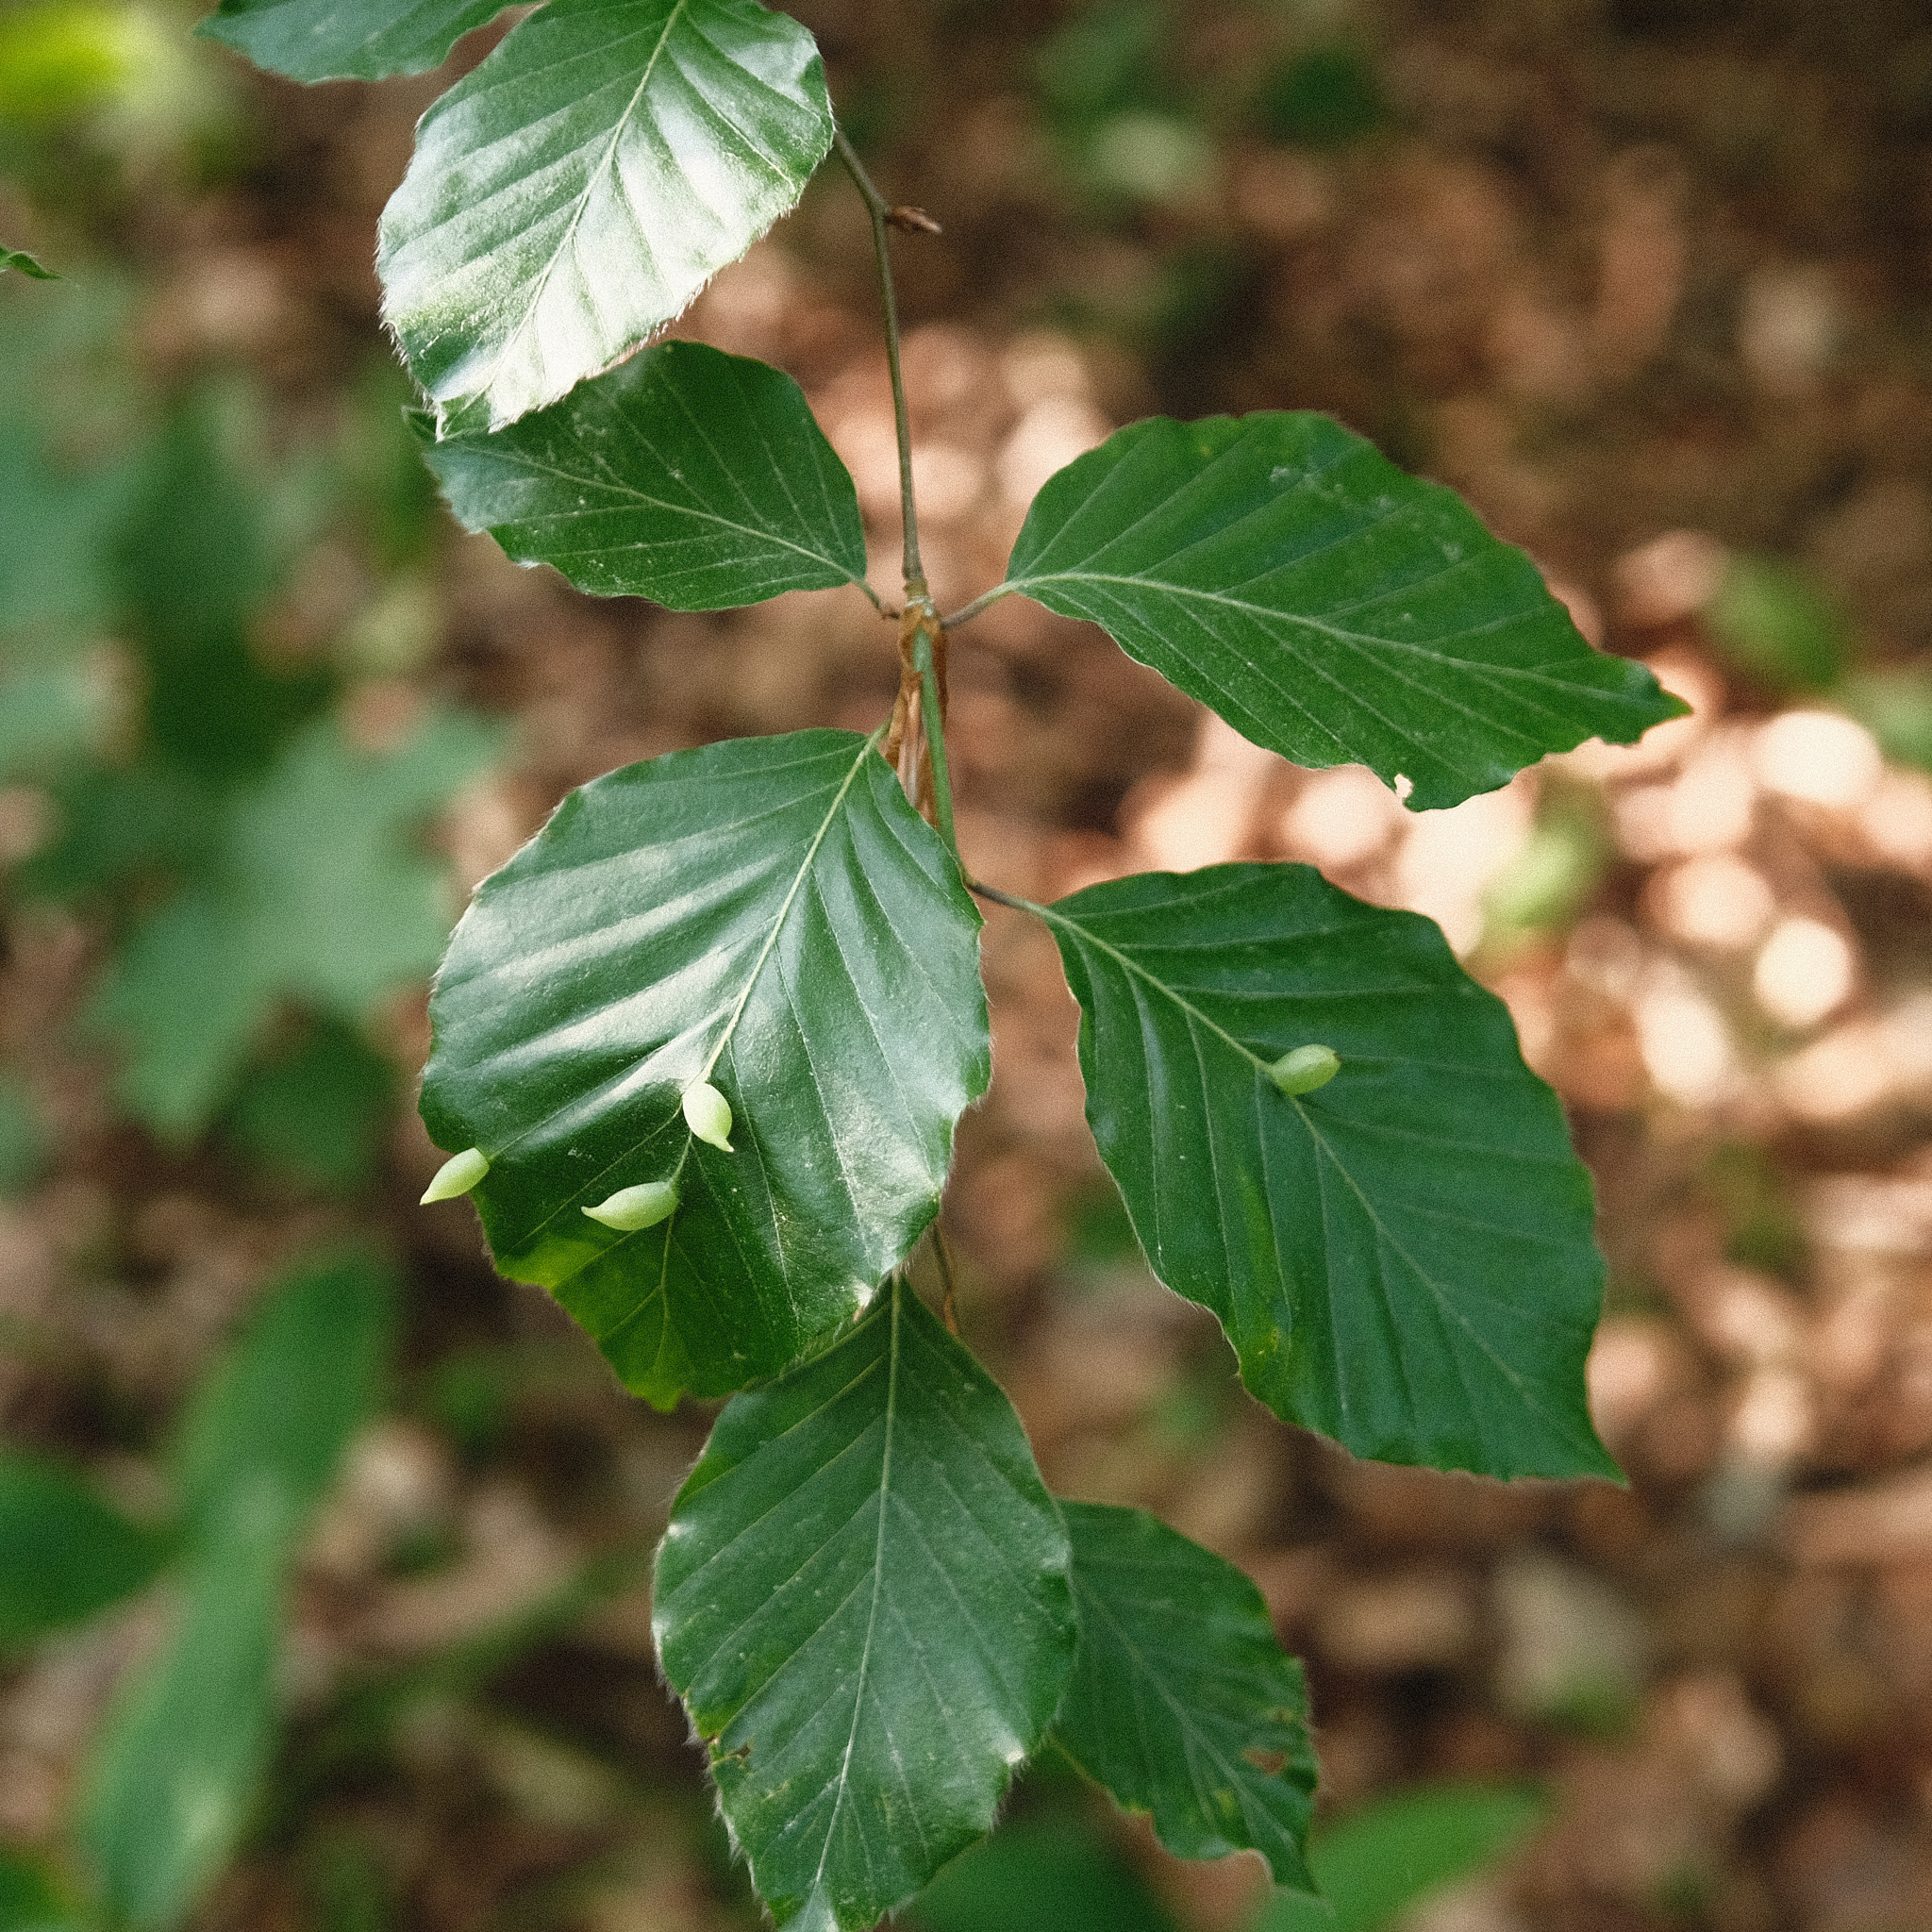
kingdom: Animalia
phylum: Arthropoda
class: Insecta
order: Diptera
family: Cecidomyiidae
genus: Mikiola
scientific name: Mikiola fagi
